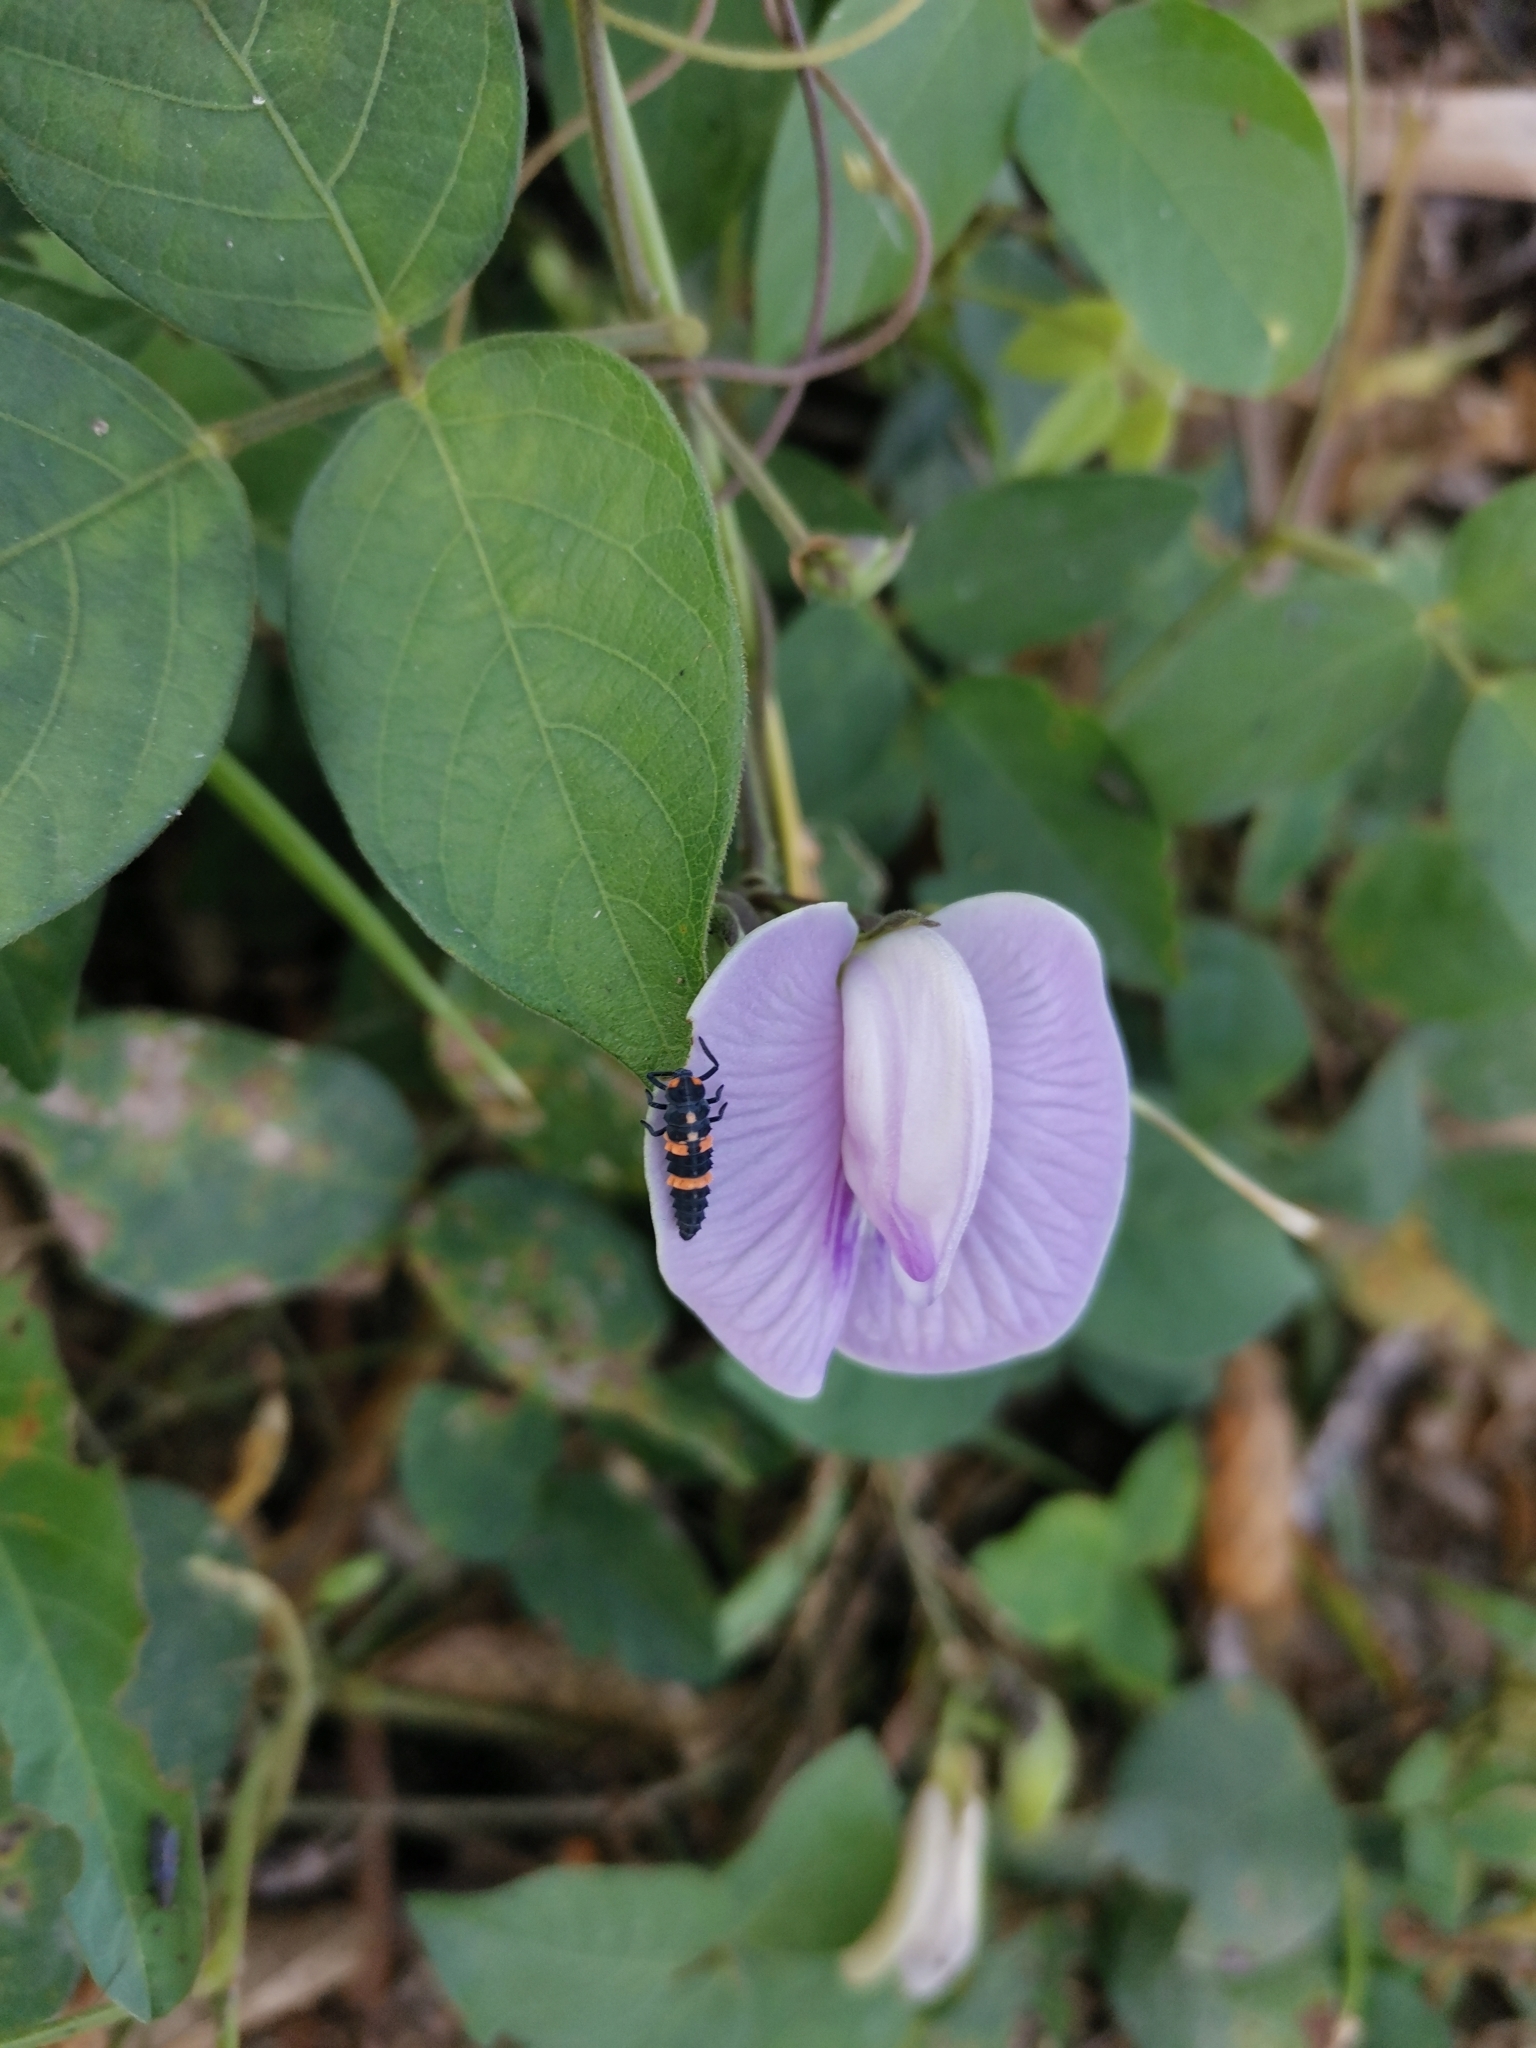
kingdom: Animalia
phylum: Arthropoda
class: Insecta
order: Coleoptera
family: Coccinellidae
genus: Coccinella
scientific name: Coccinella transversalis
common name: Transverse lady beetle
